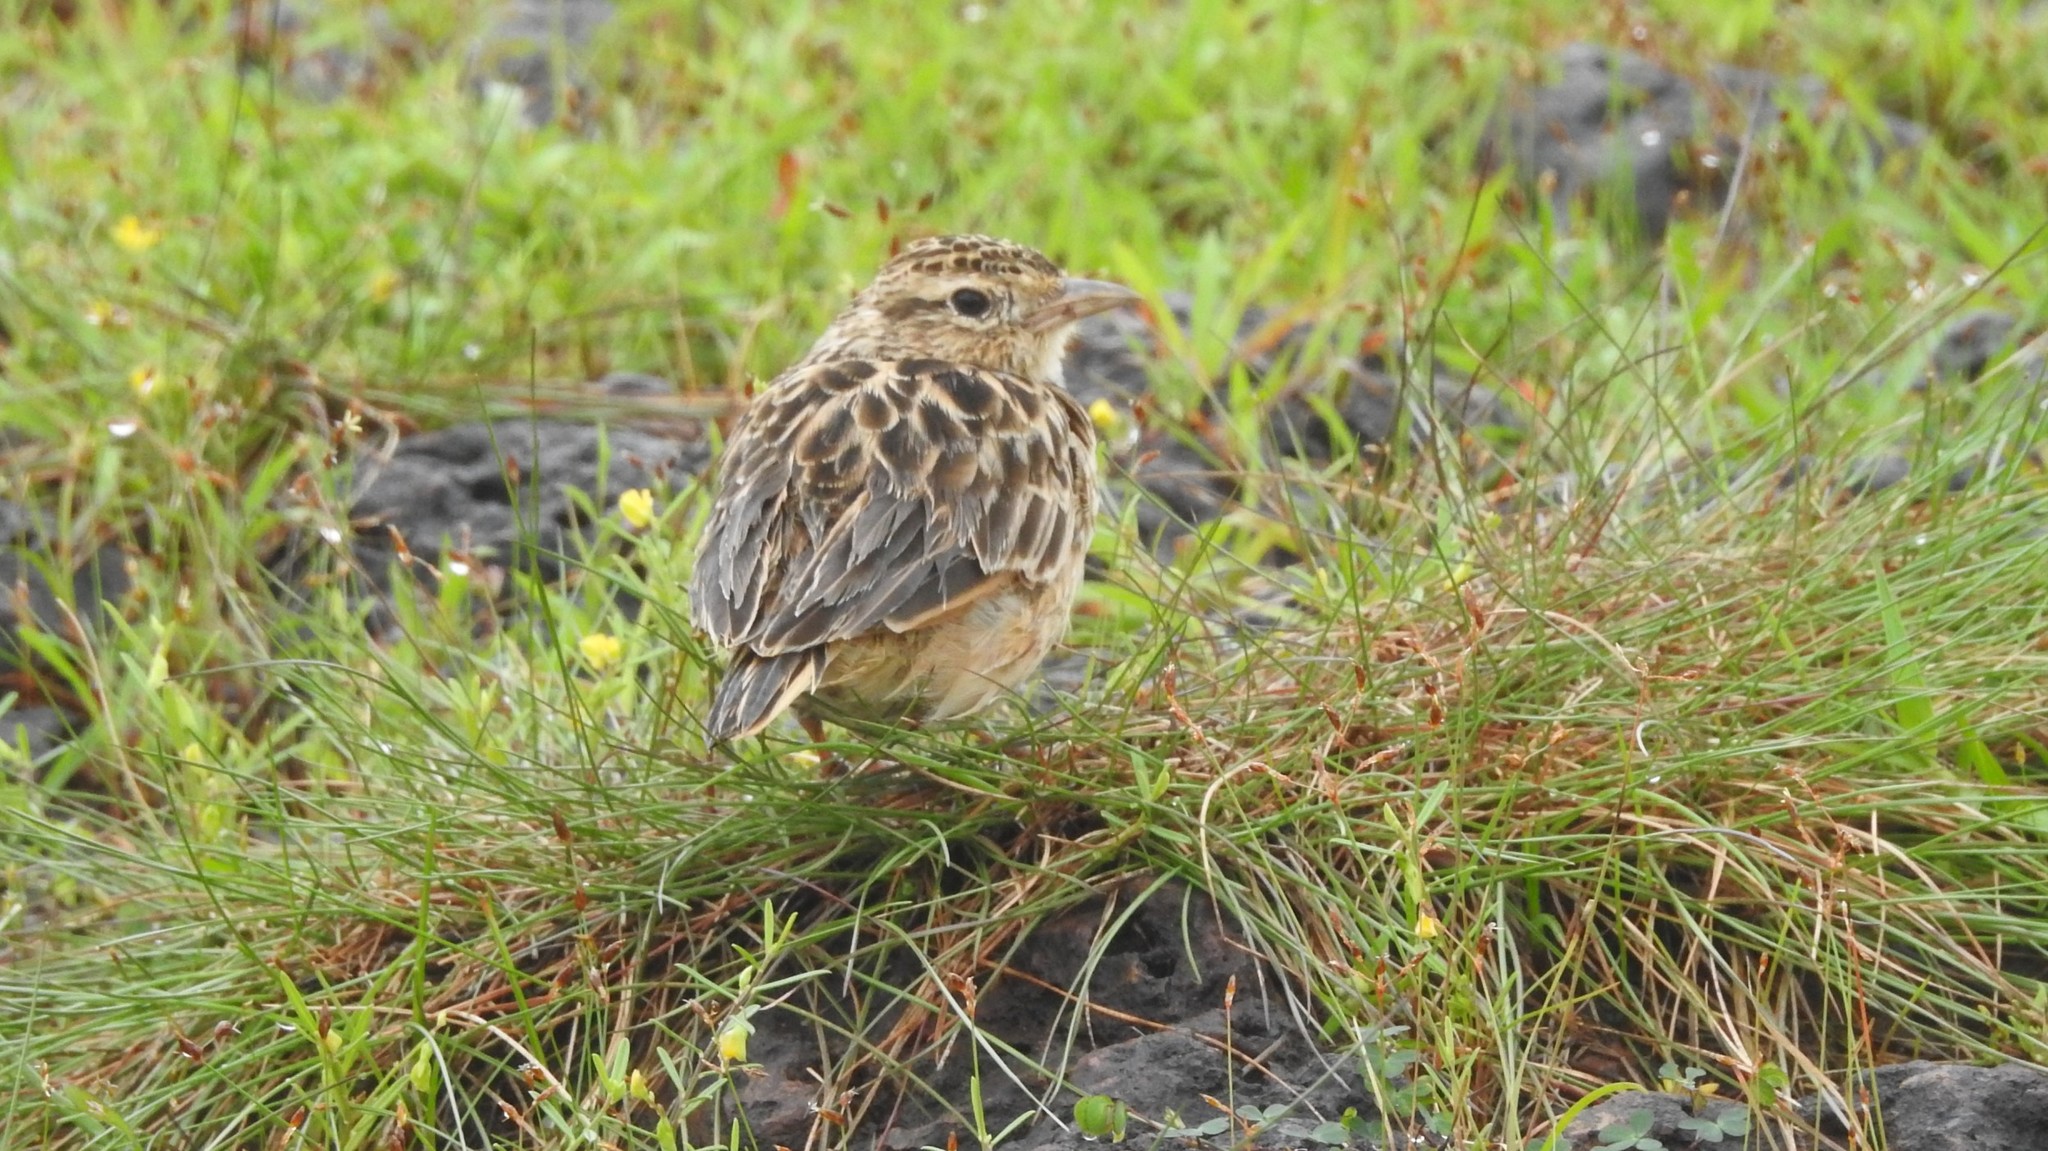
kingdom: Animalia
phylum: Chordata
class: Aves
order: Passeriformes
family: Alaudidae
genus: Galerida
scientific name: Galerida malabarica
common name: Malabar lark
